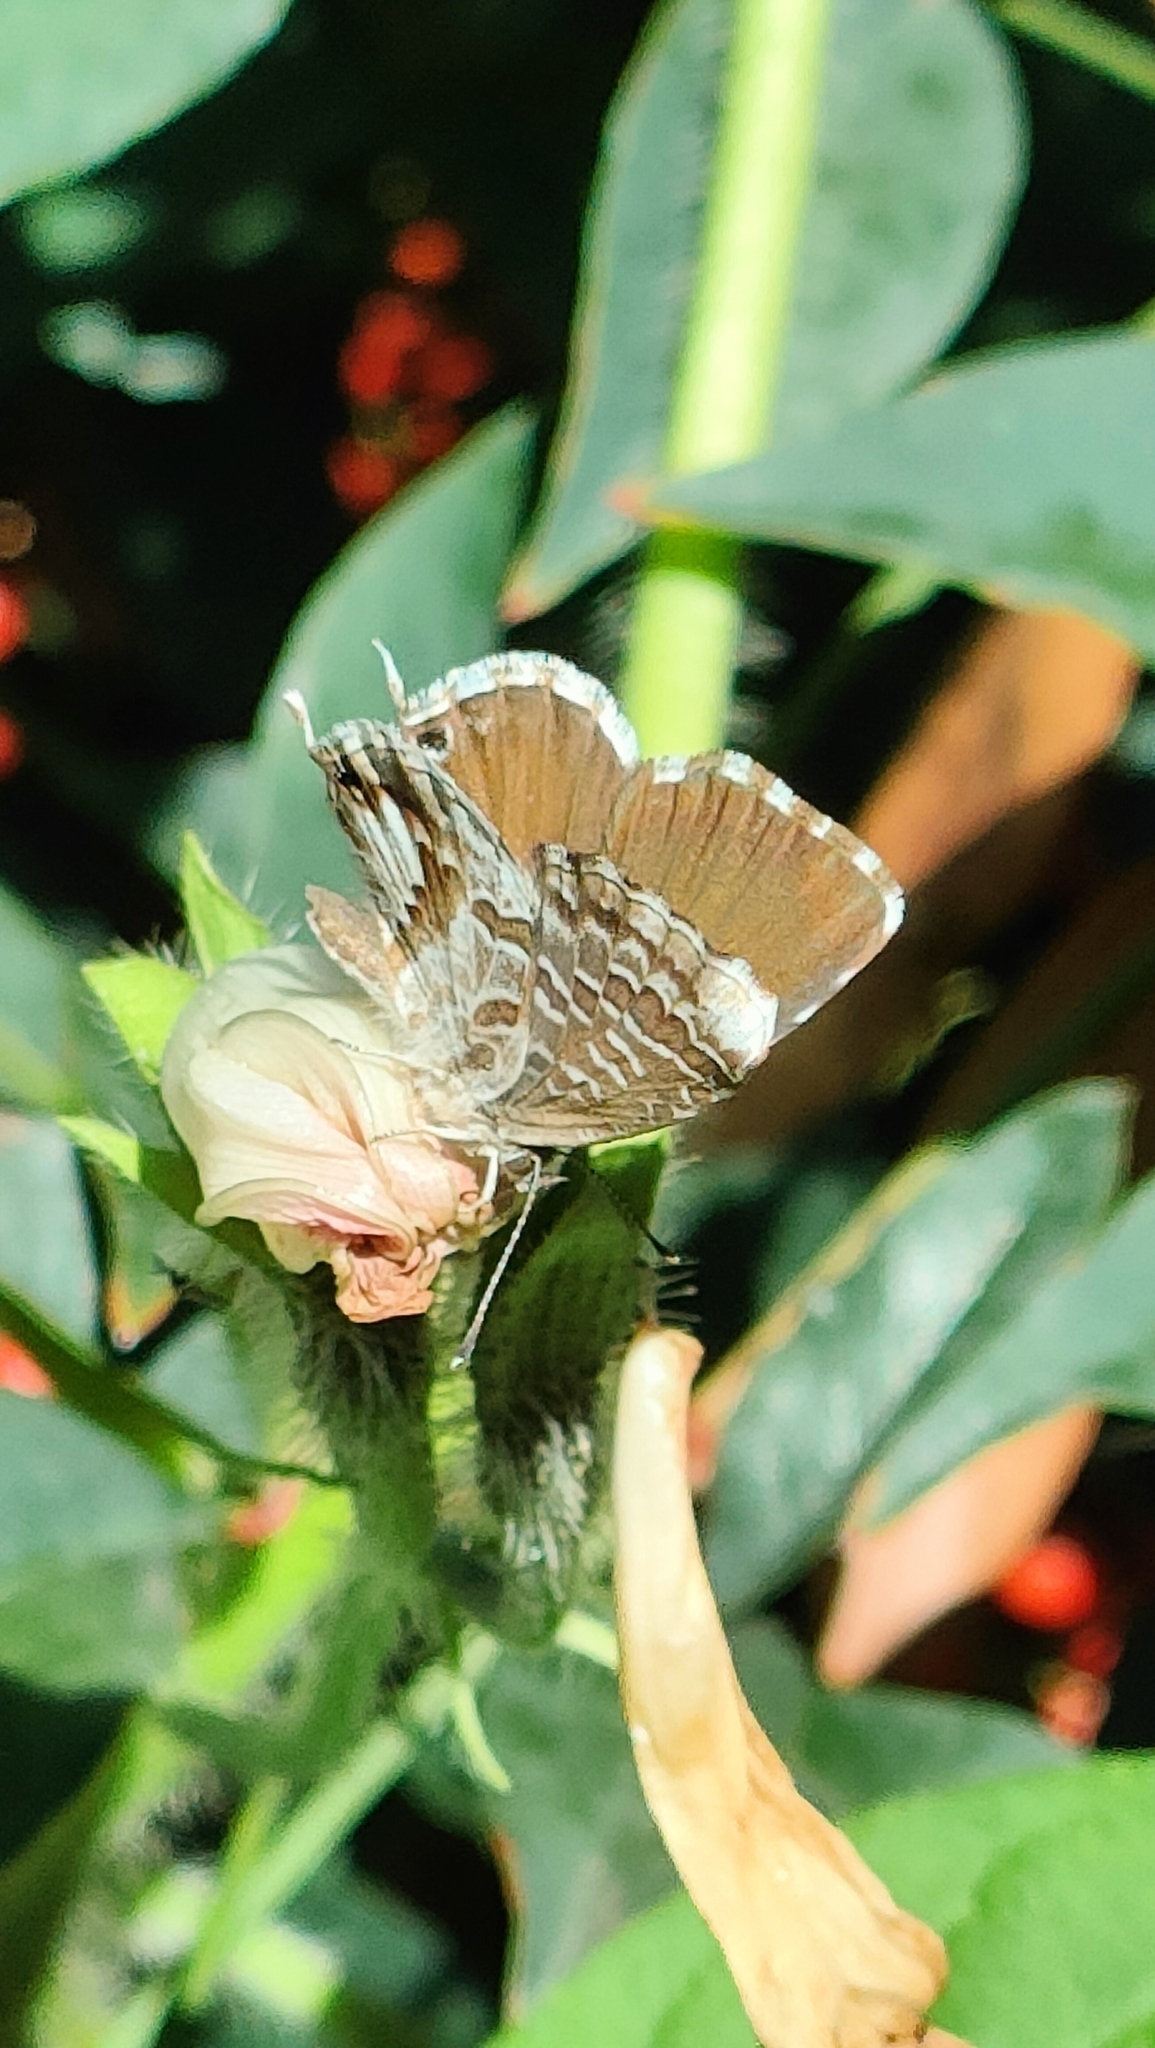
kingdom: Animalia
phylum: Arthropoda
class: Insecta
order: Lepidoptera
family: Lycaenidae
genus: Cacyreus
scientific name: Cacyreus marshalli
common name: Geranium bronze
